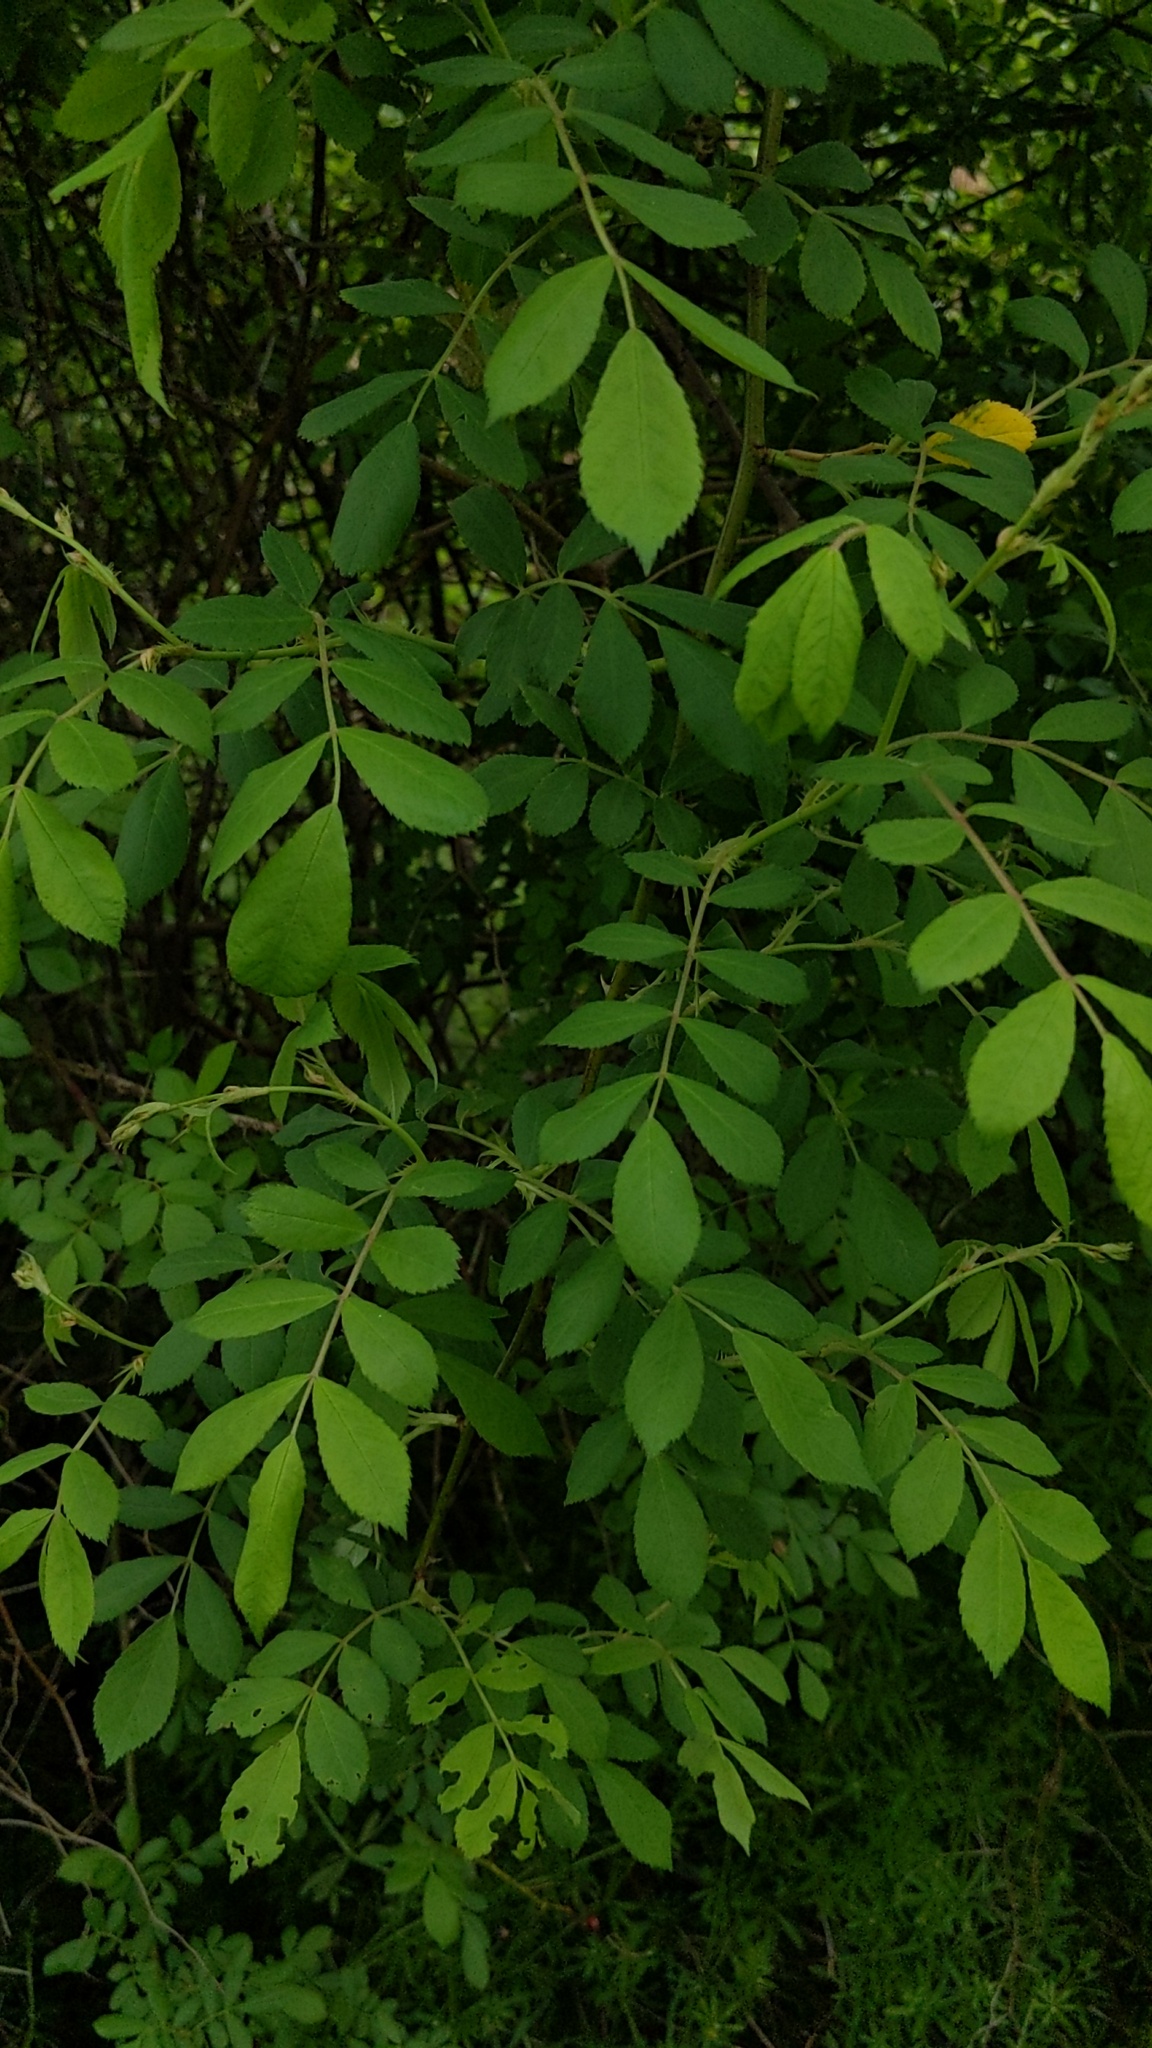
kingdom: Plantae
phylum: Tracheophyta
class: Magnoliopsida
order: Rosales
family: Rosaceae
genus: Rosa
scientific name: Rosa multiflora
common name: Multiflora rose
